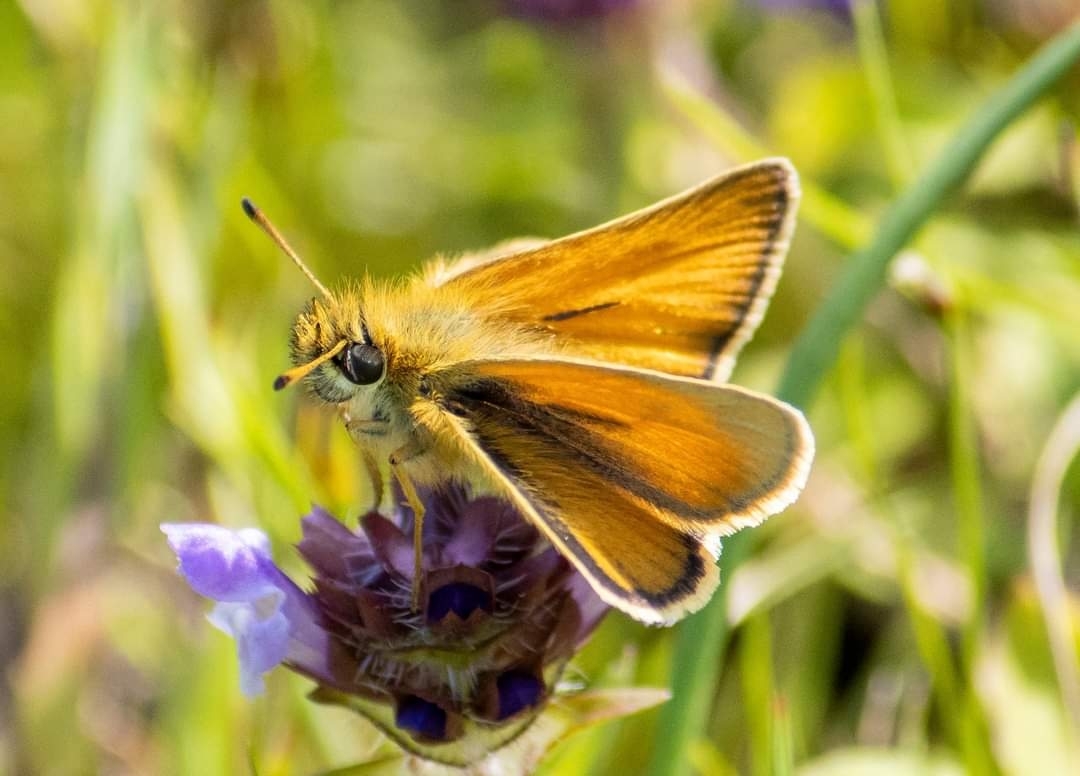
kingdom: Animalia
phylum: Arthropoda
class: Insecta
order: Lepidoptera
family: Hesperiidae
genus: Thymelicus
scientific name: Thymelicus lineola
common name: Essex skipper
